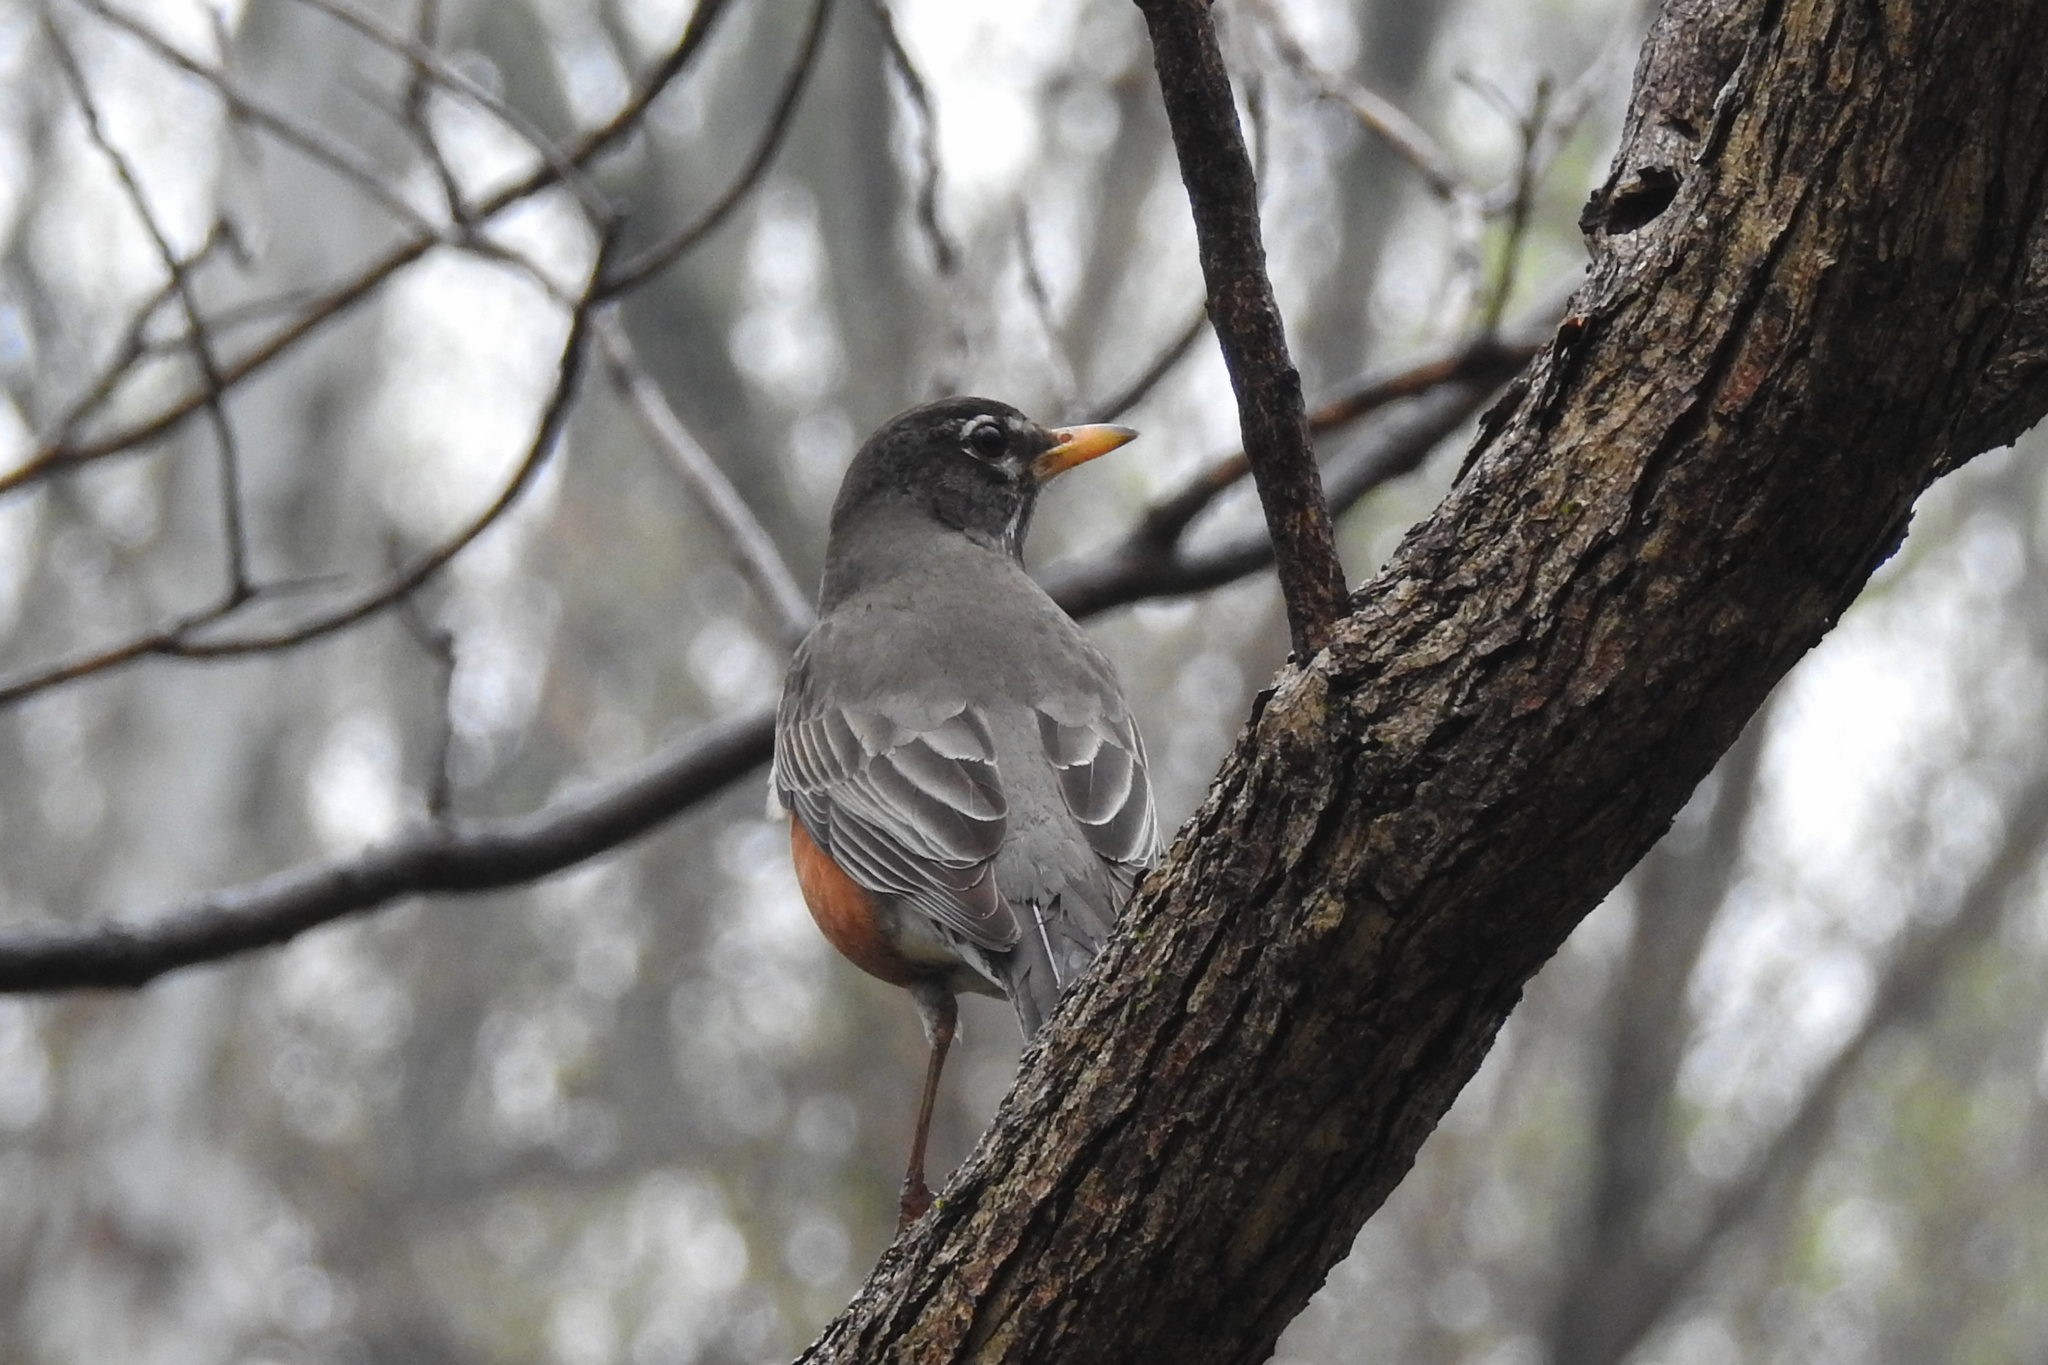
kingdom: Animalia
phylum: Chordata
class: Aves
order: Passeriformes
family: Turdidae
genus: Turdus
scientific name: Turdus migratorius
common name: American robin
